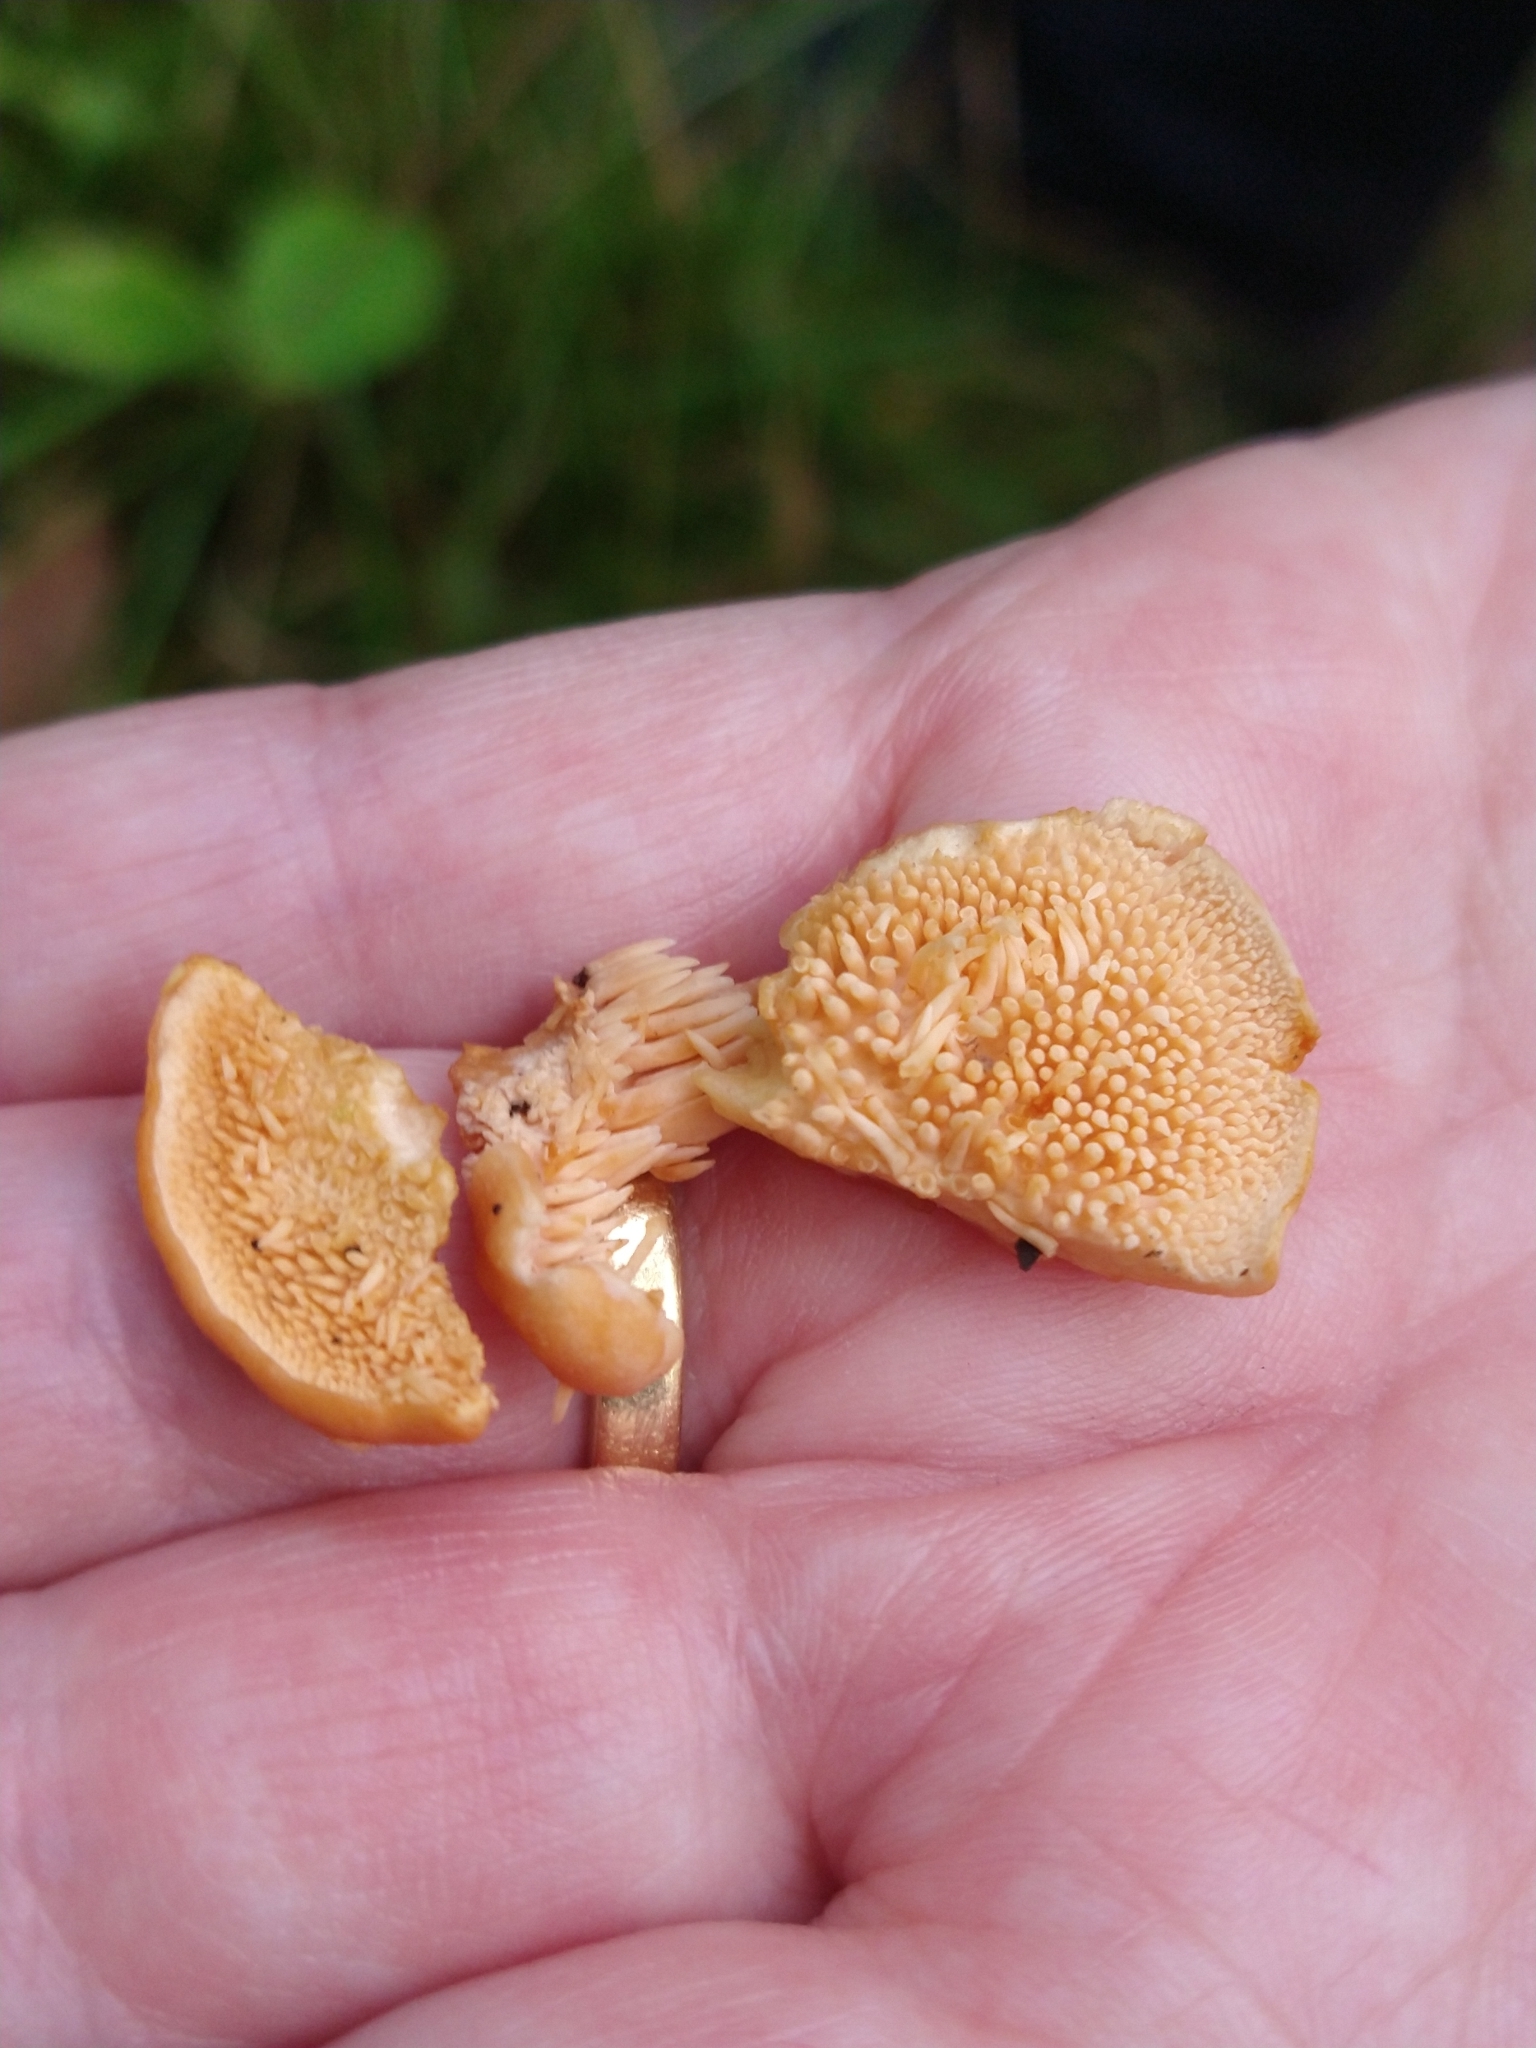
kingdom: Fungi
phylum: Basidiomycota
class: Agaricomycetes
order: Cantharellales
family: Hydnaceae
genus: Hydnum
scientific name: Hydnum rufescens
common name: Terracotta hedgehog
